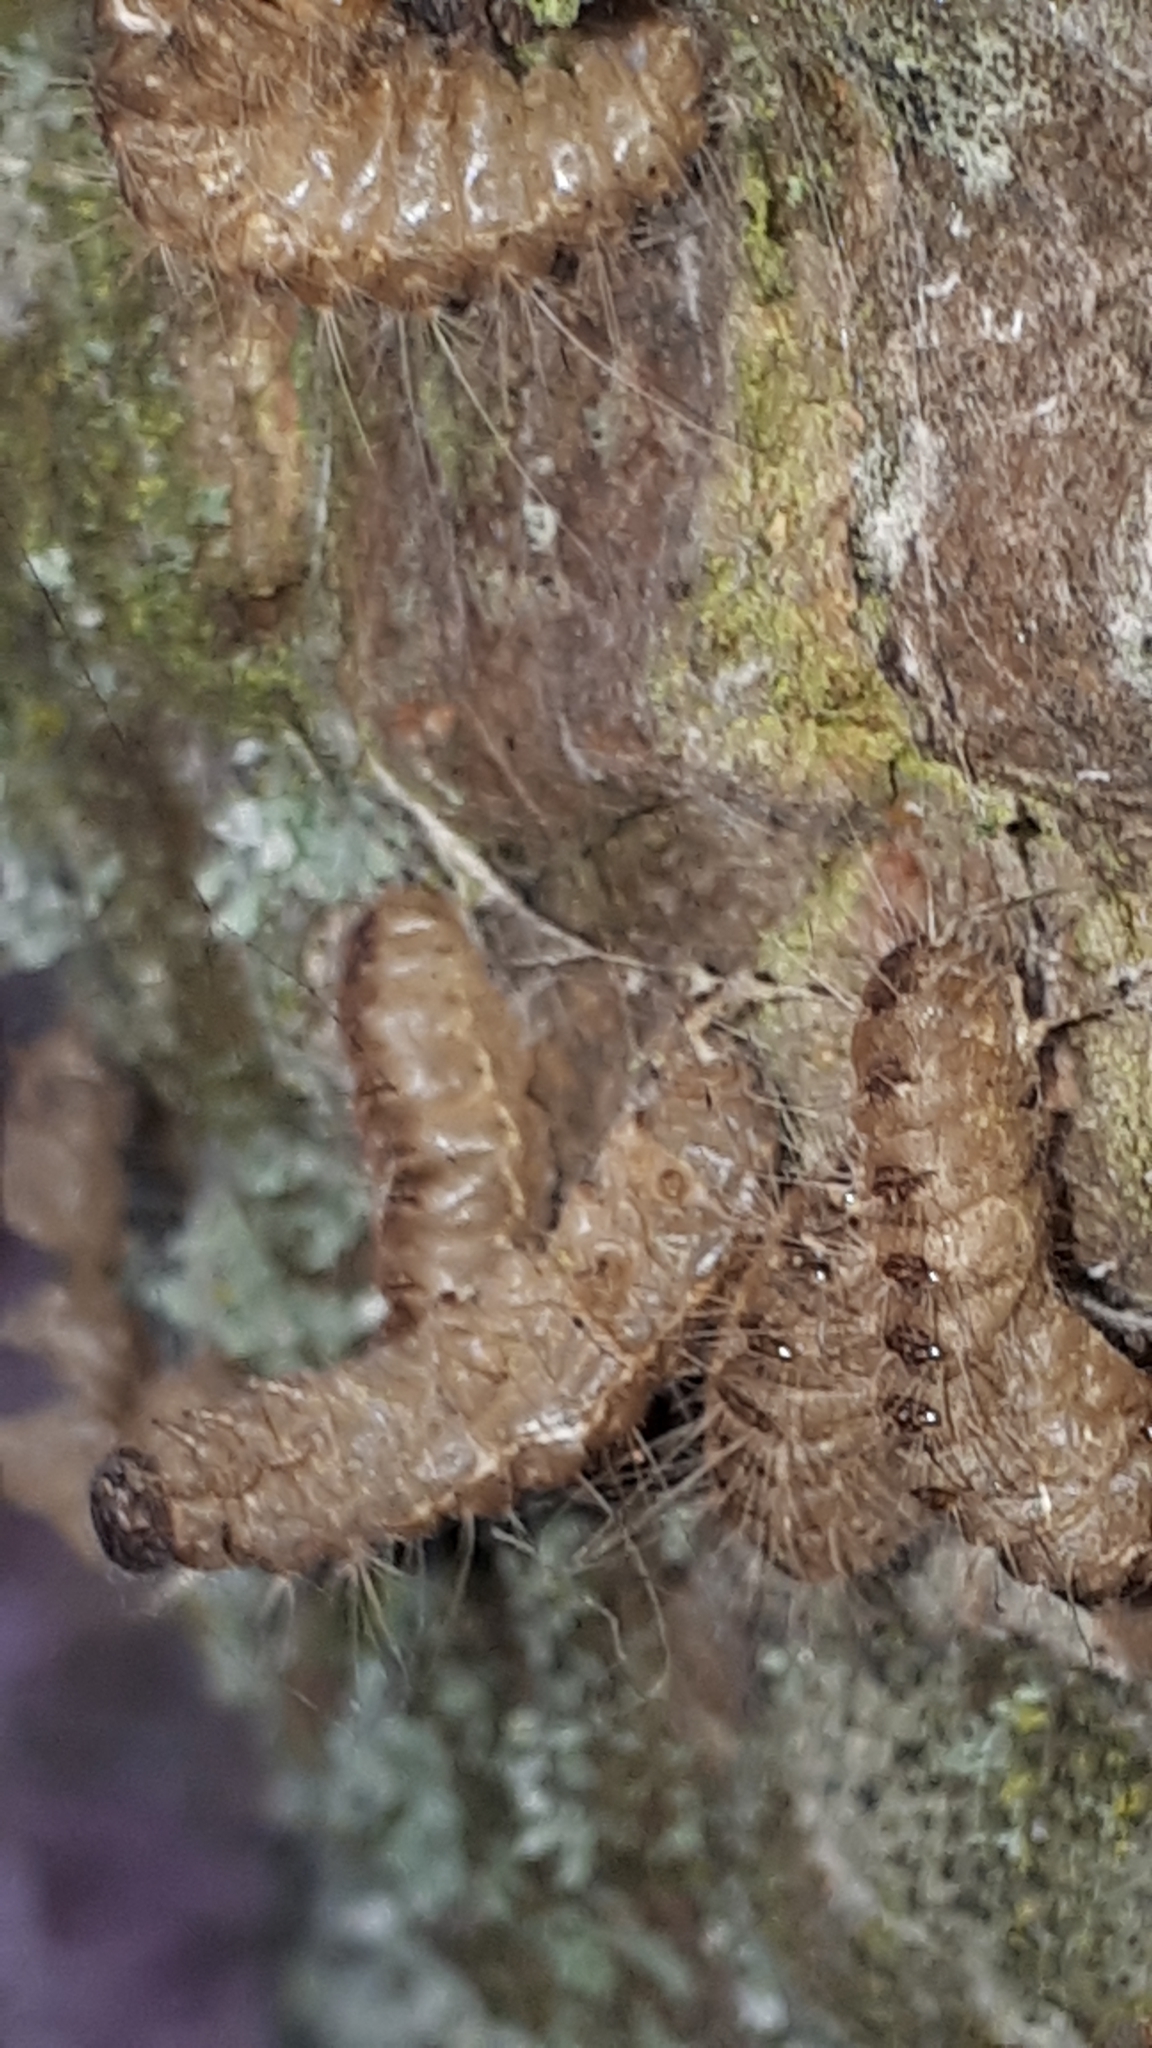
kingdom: Animalia
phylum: Arthropoda
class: Insecta
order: Lepidoptera
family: Notodontidae
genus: Thaumetopoea
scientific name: Thaumetopoea processionea
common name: Oak processionea
